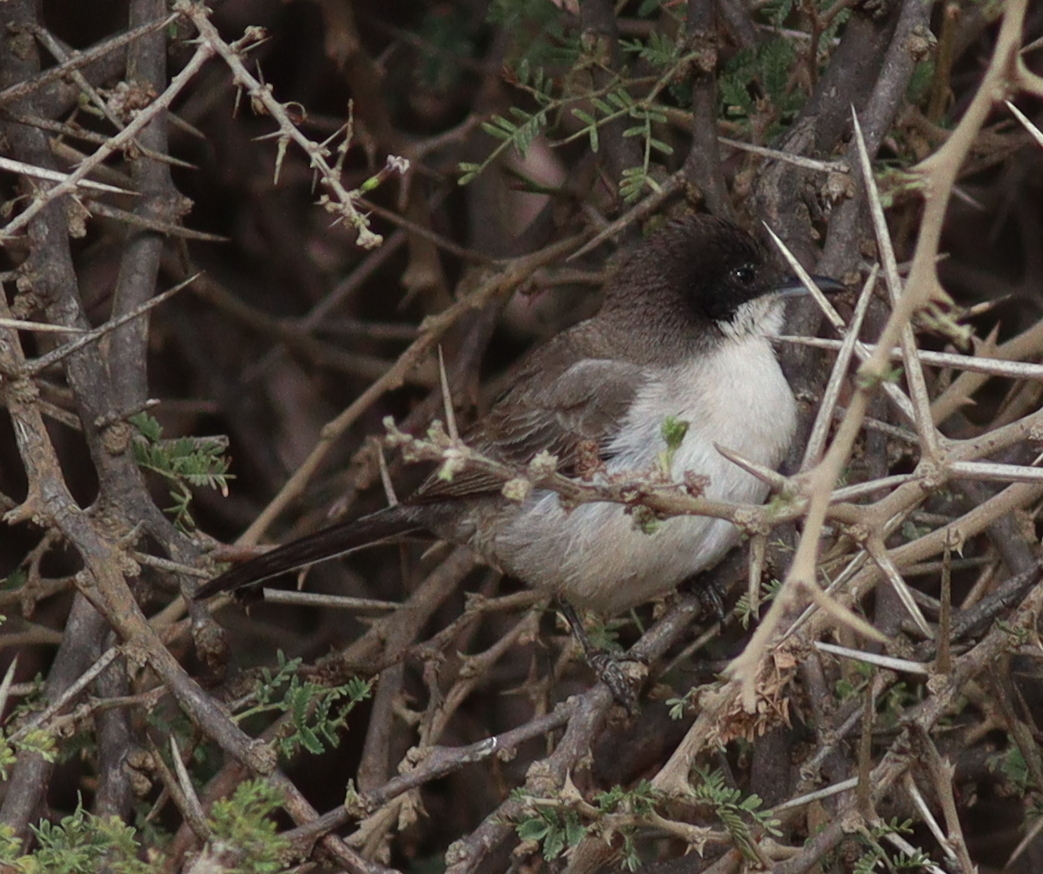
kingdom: Animalia
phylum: Chordata
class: Aves
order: Passeriformes
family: Sylviidae
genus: Sylvia
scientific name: Sylvia leucomelaena
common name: Arabian warbler
